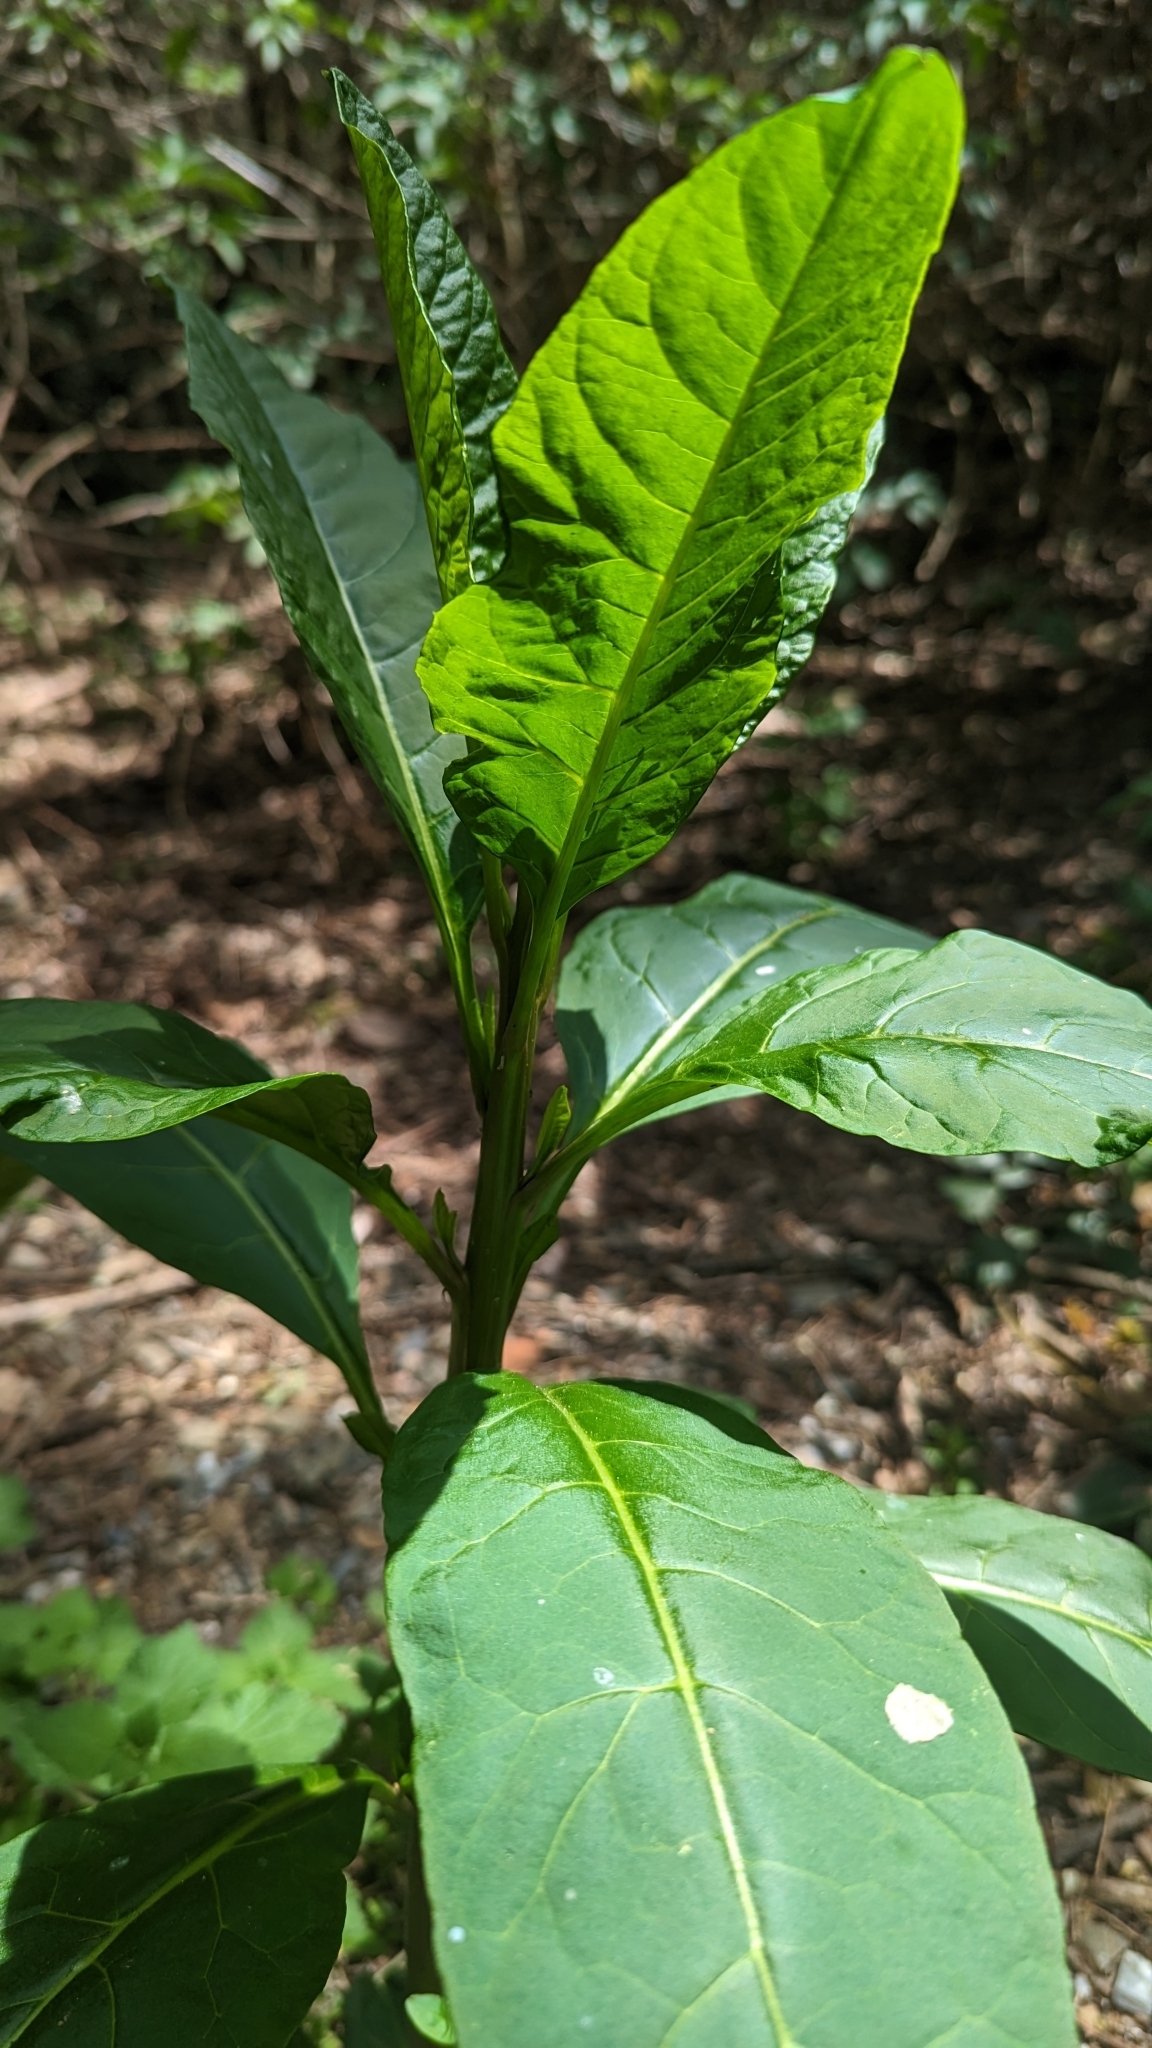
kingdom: Plantae
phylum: Tracheophyta
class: Magnoliopsida
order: Caryophyllales
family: Phytolaccaceae
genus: Phytolacca
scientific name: Phytolacca americana
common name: American pokeweed
